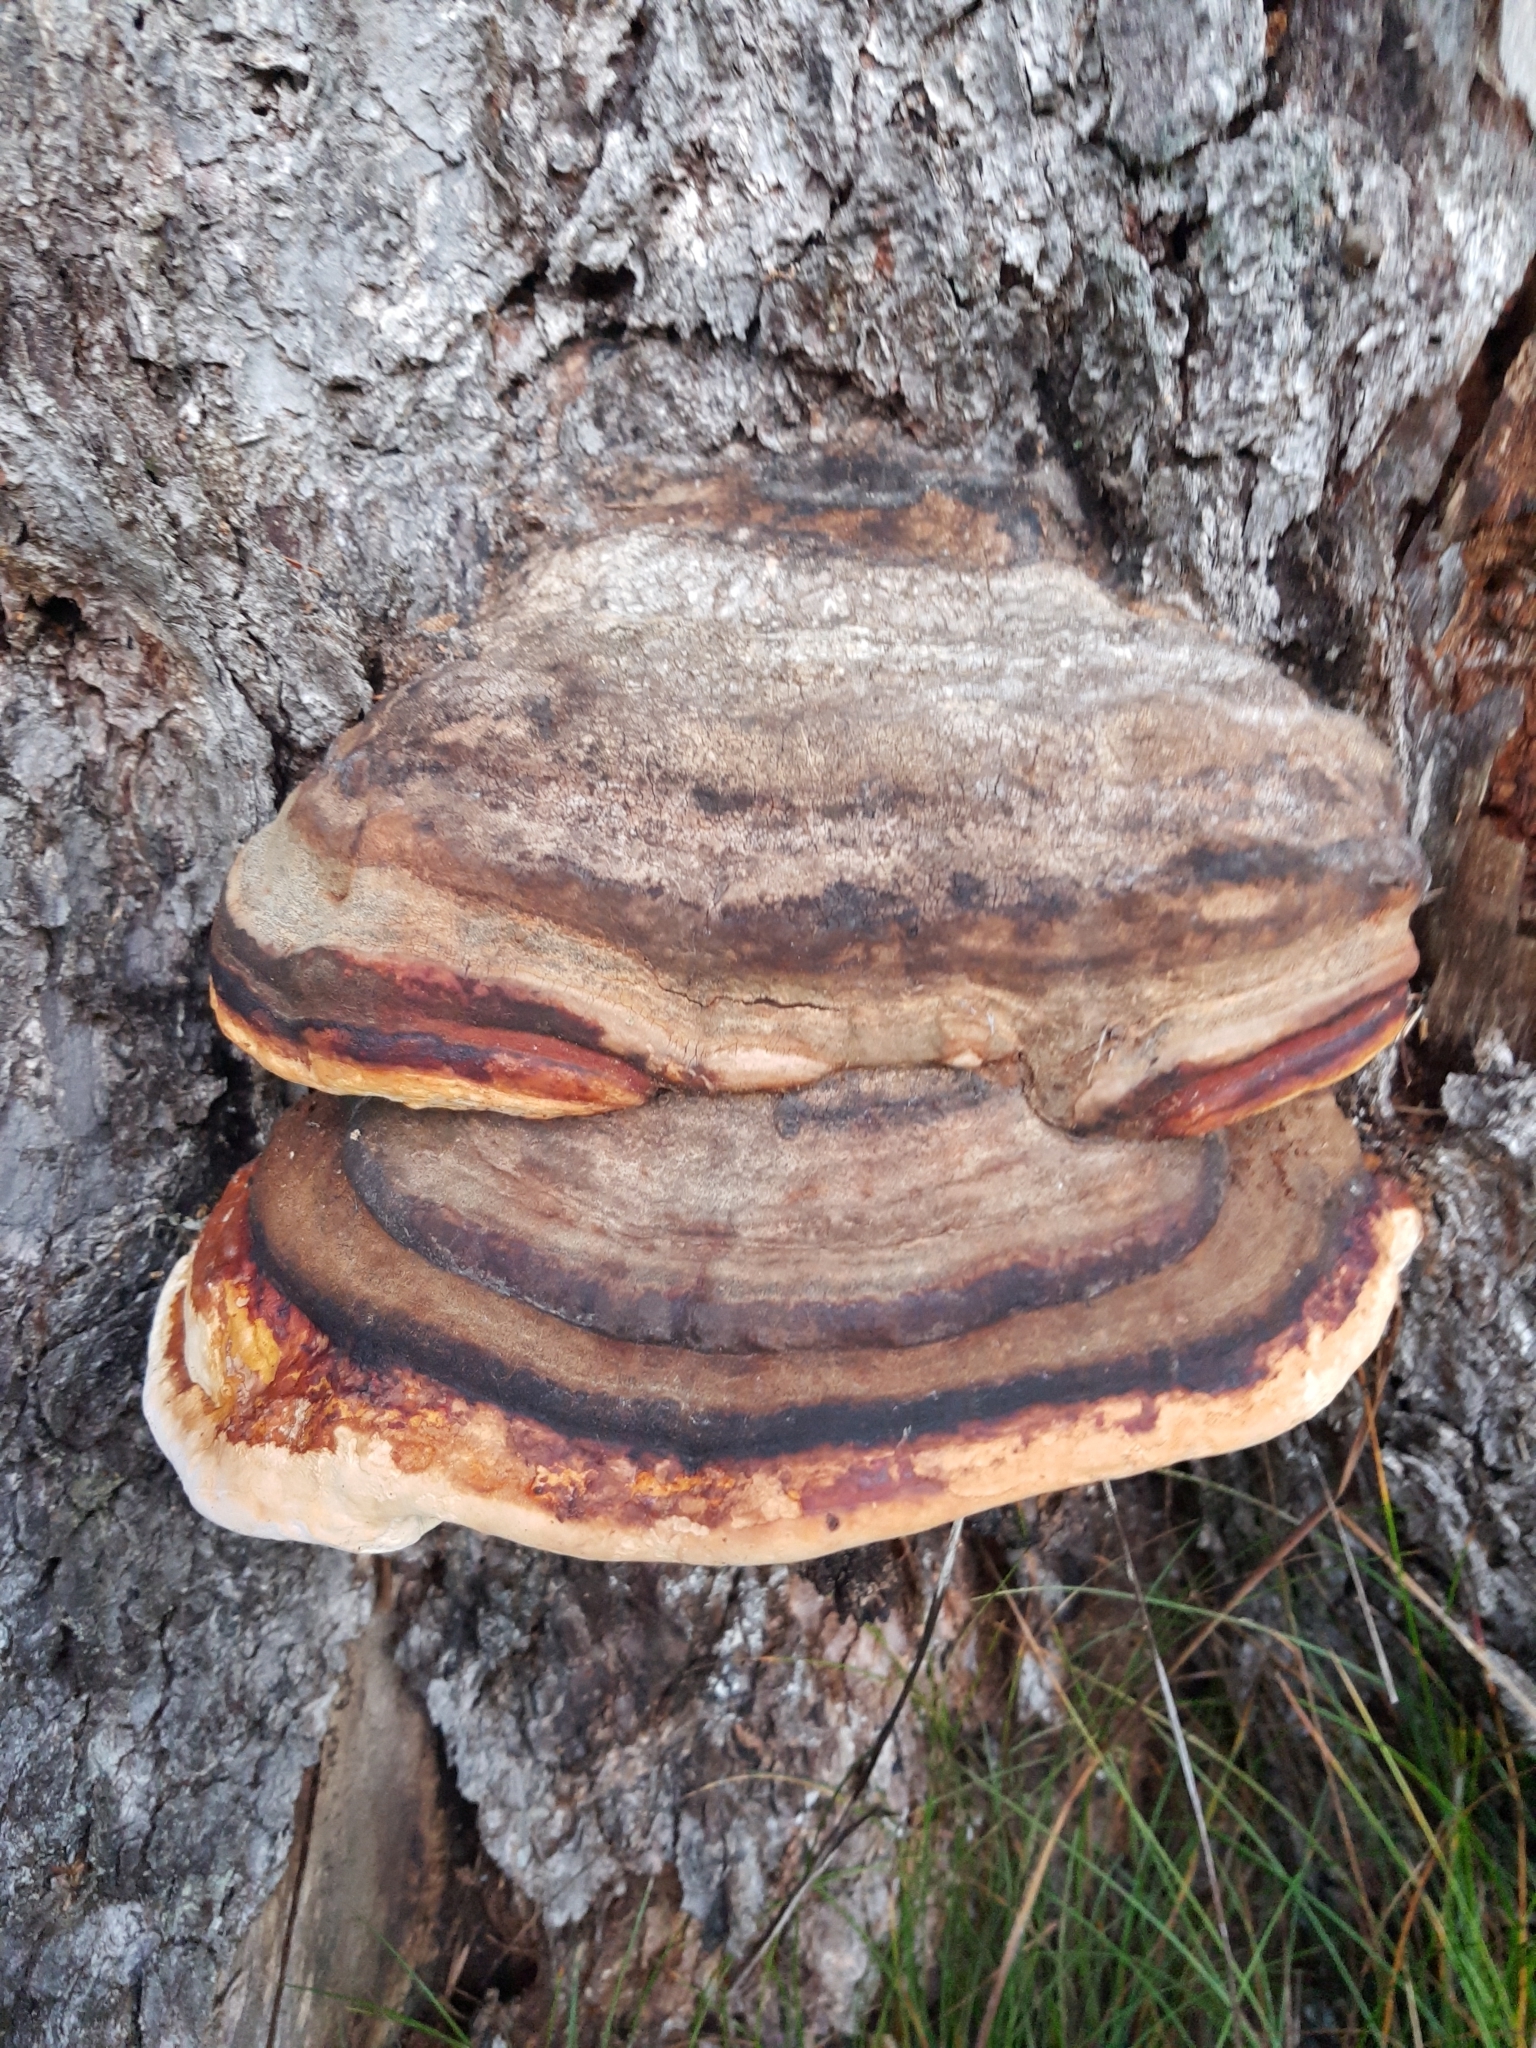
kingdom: Fungi
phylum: Basidiomycota
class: Agaricomycetes
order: Polyporales
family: Fomitopsidaceae
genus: Fomitopsis
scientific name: Fomitopsis pinicola
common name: Red-belted bracket
